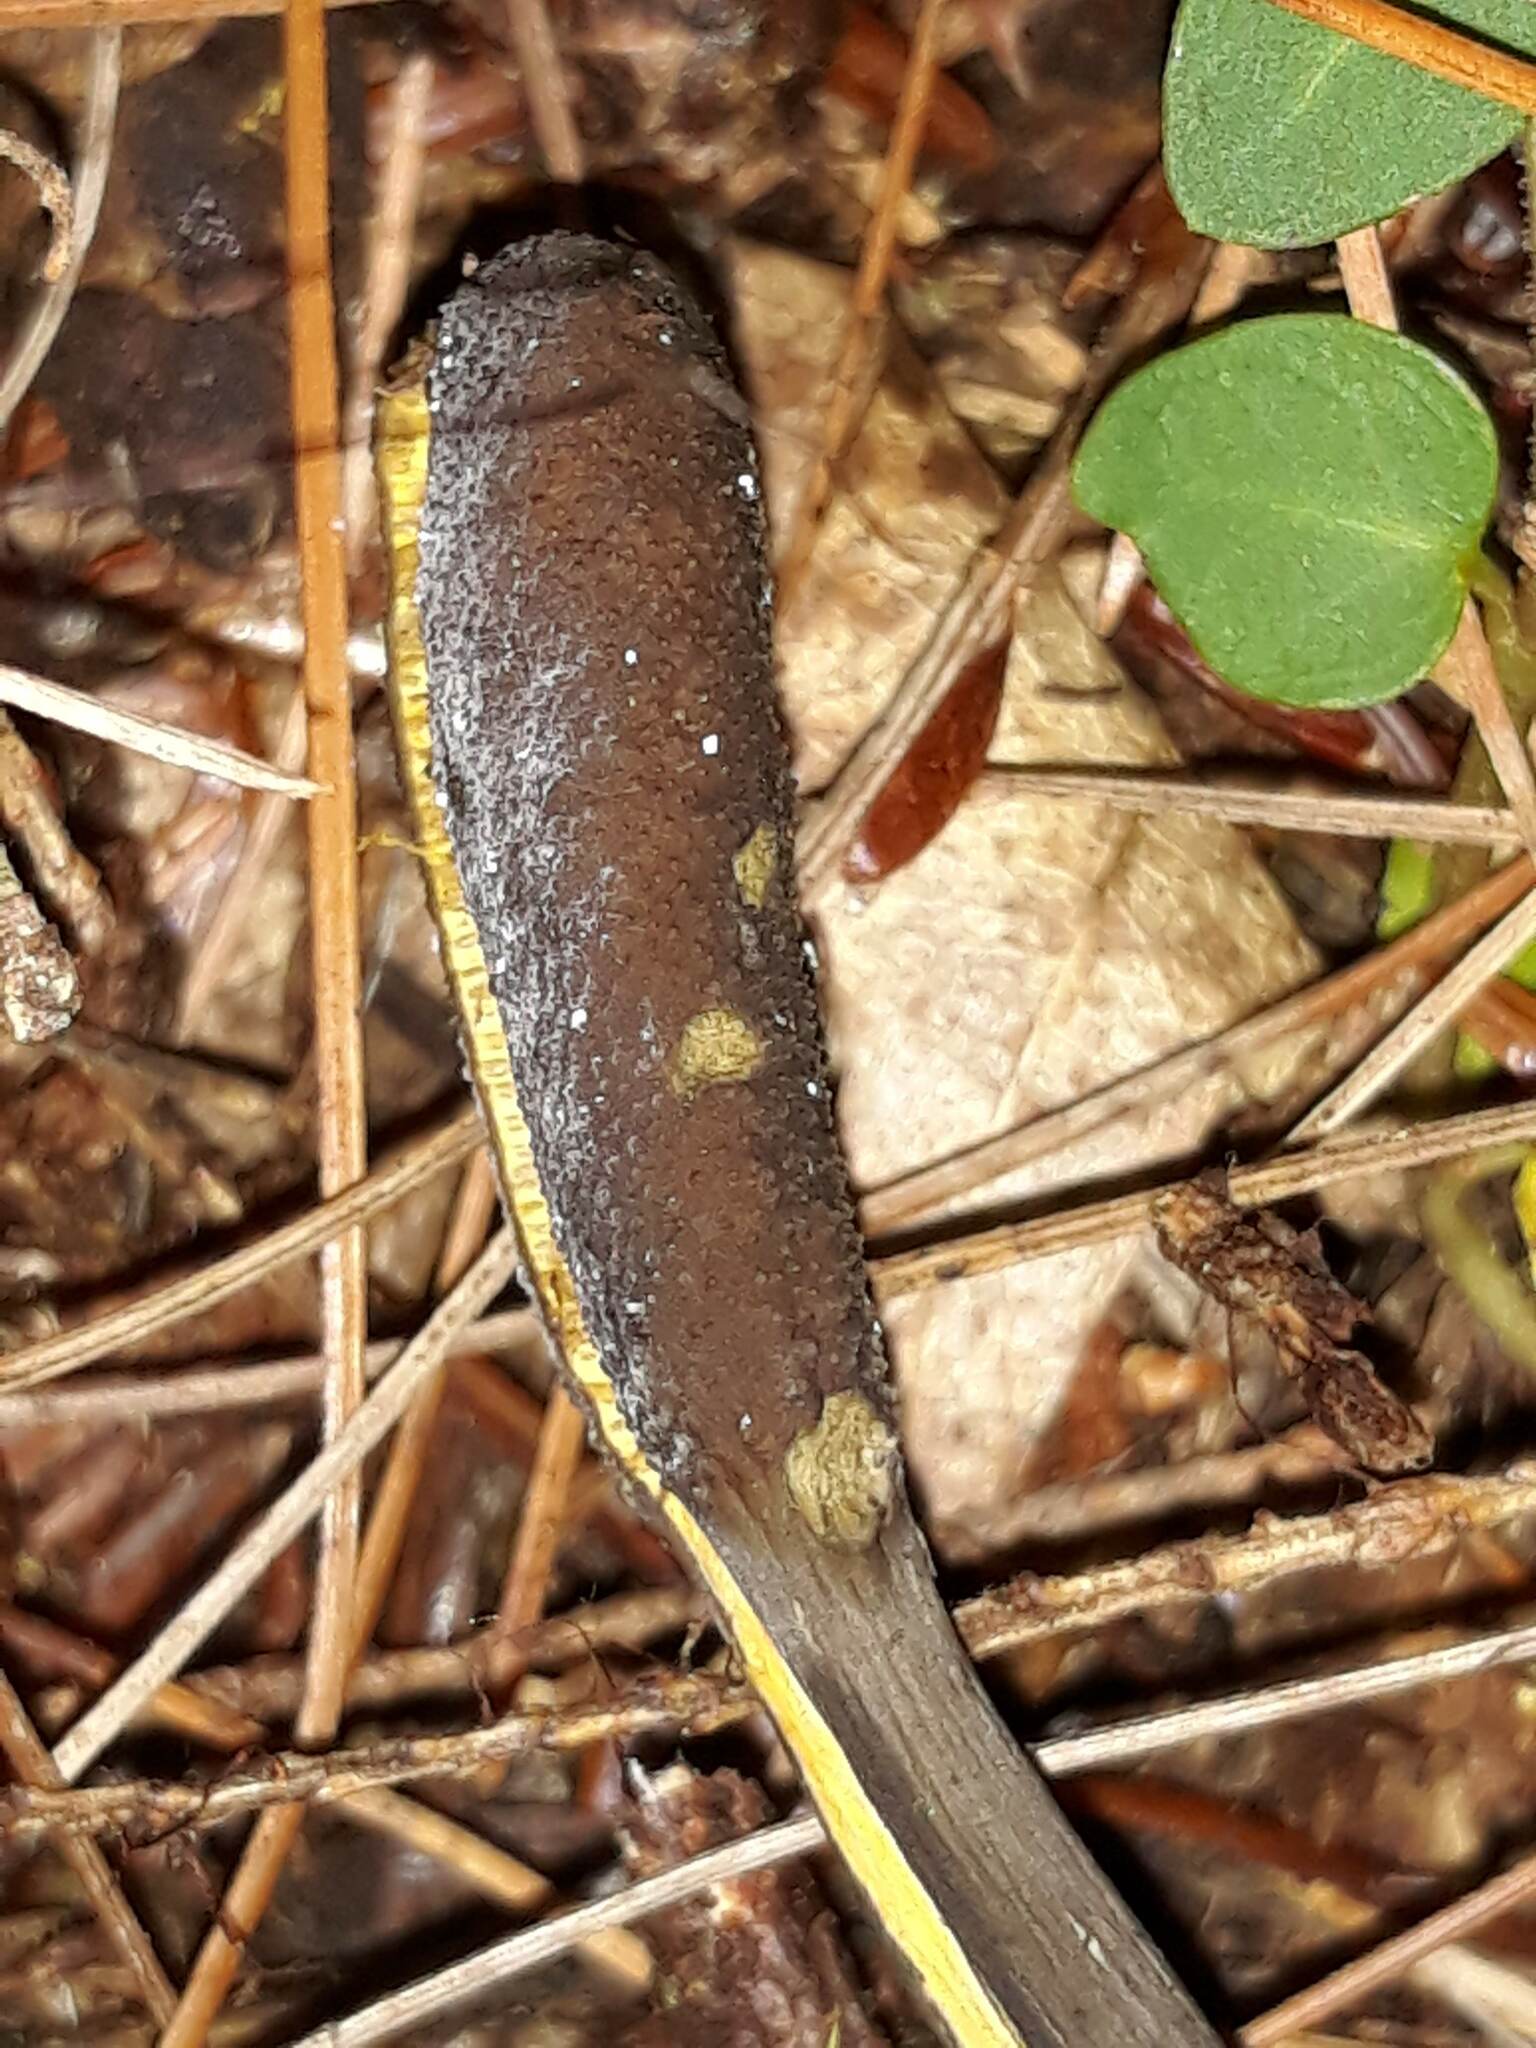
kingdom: Fungi
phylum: Ascomycota
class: Sordariomycetes
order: Hypocreales
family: Ophiocordycipitaceae
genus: Tolypocladium
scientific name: Tolypocladium ophioglossoides
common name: Snaketongue truffleclub
